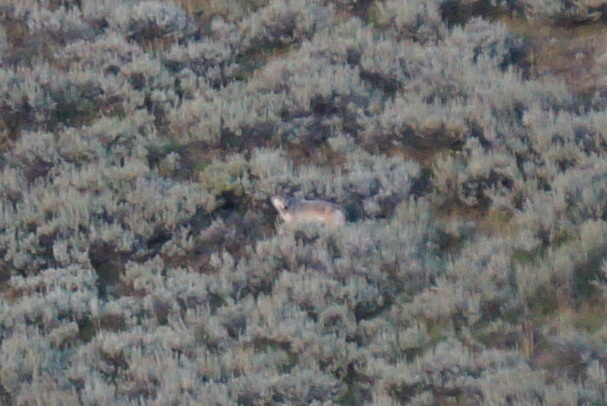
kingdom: Animalia
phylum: Chordata
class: Mammalia
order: Carnivora
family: Canidae
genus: Canis
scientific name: Canis lupus
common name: Gray wolf
